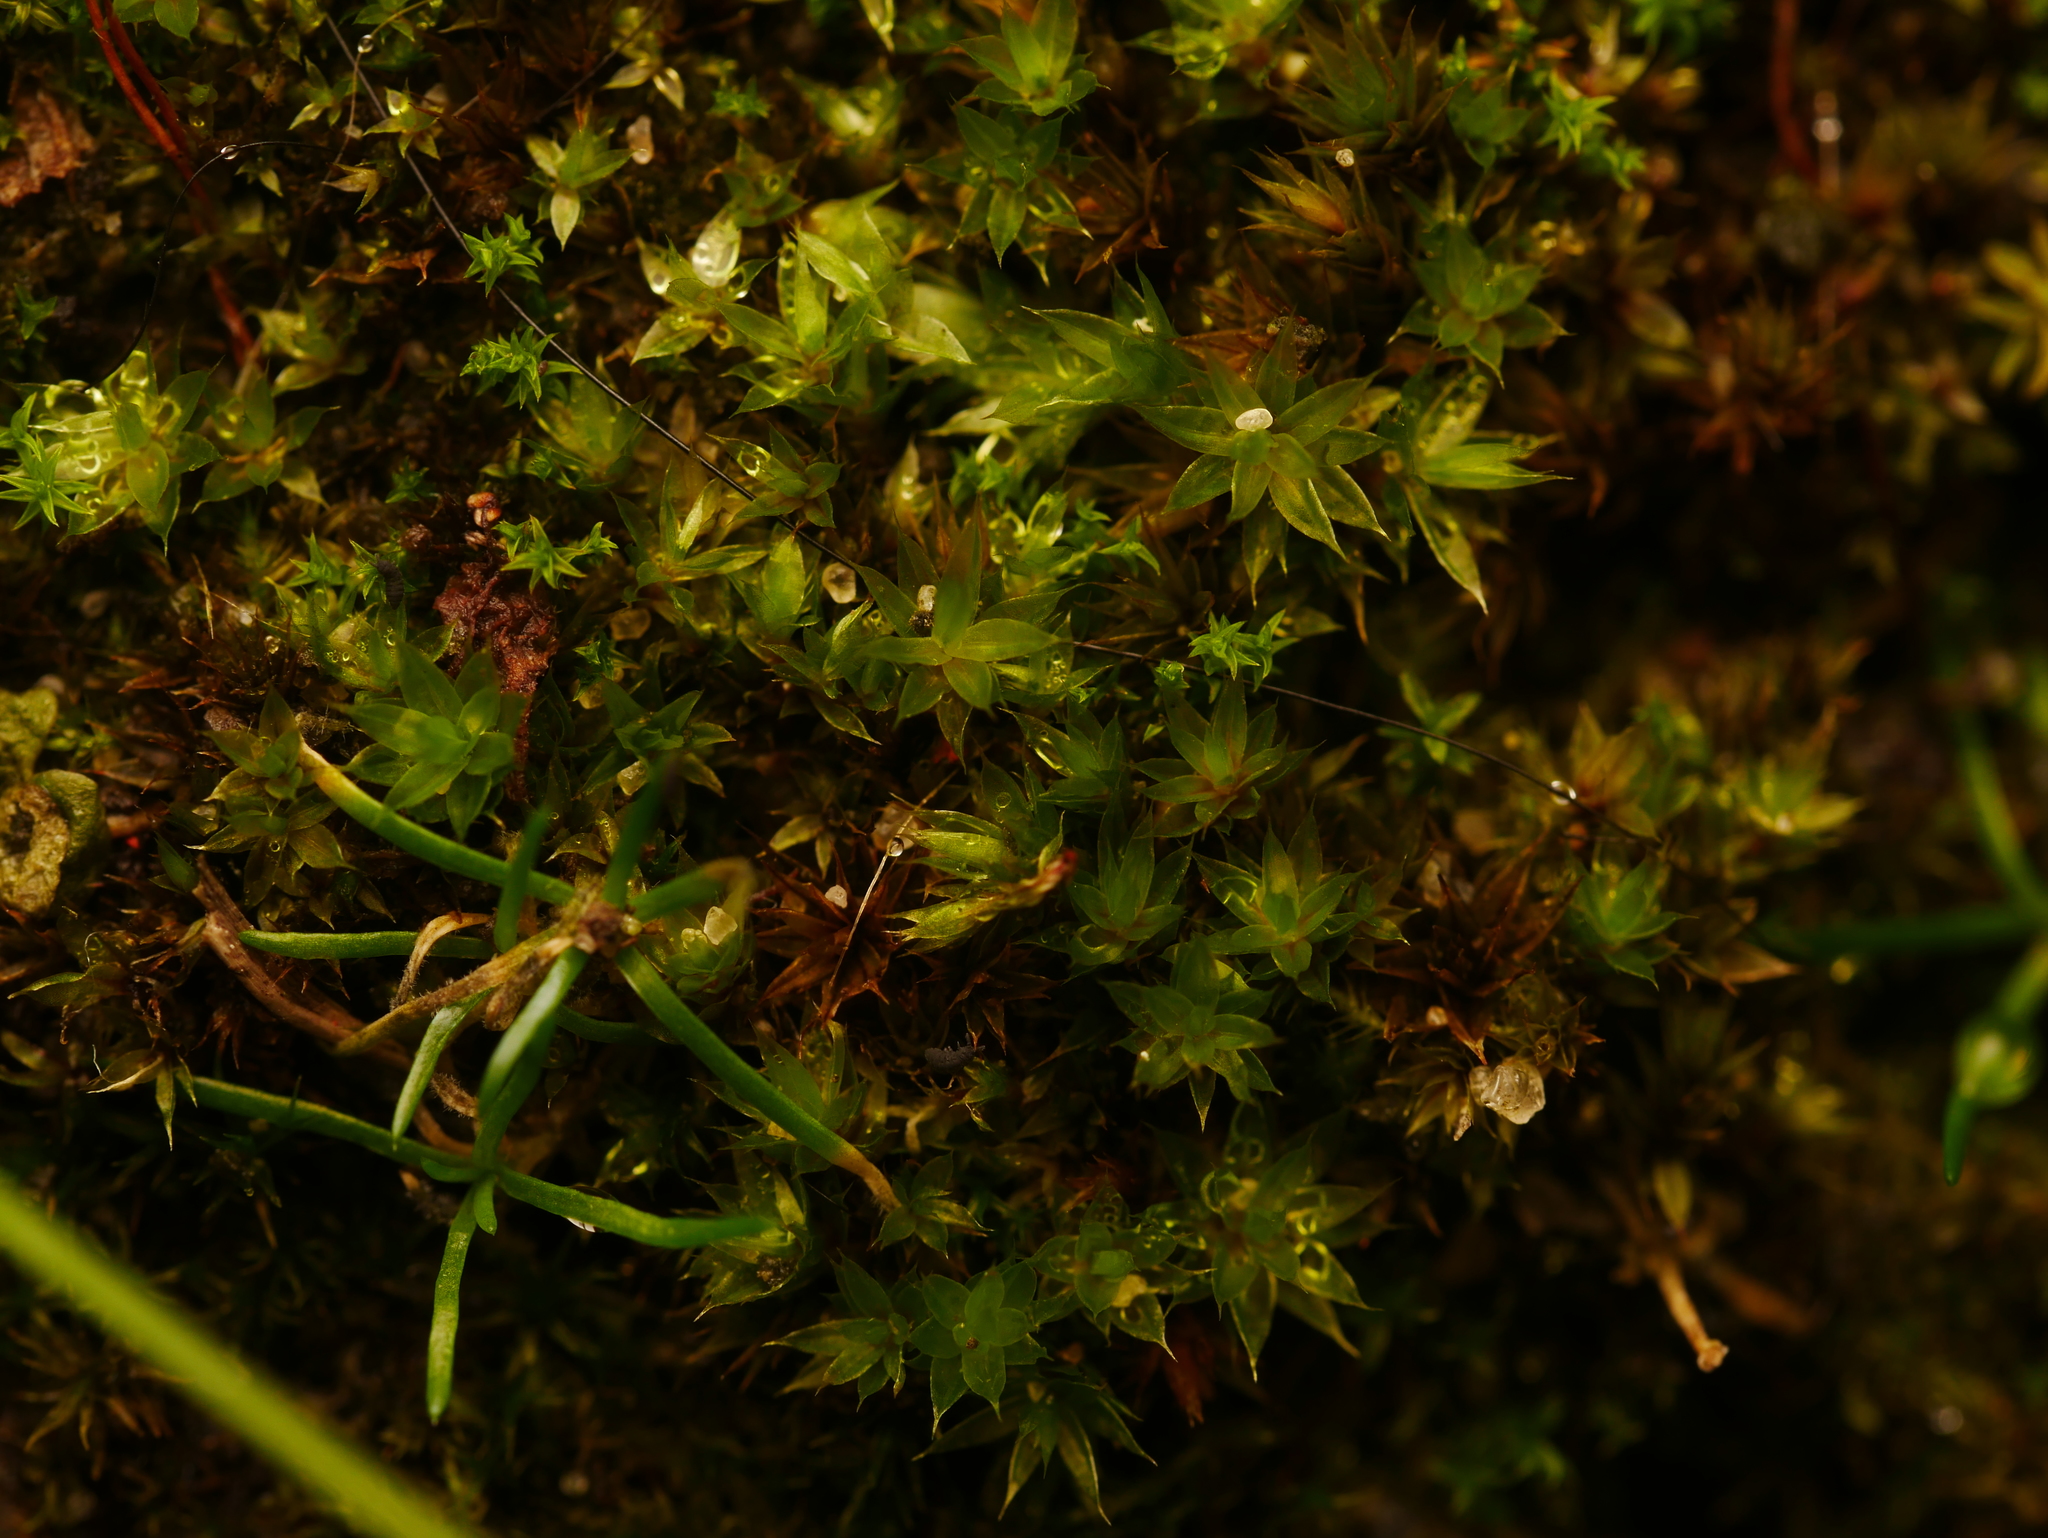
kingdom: Plantae
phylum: Bryophyta
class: Bryopsida
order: Bryales
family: Bryaceae
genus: Rosulabryum
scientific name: Rosulabryum moravicum
